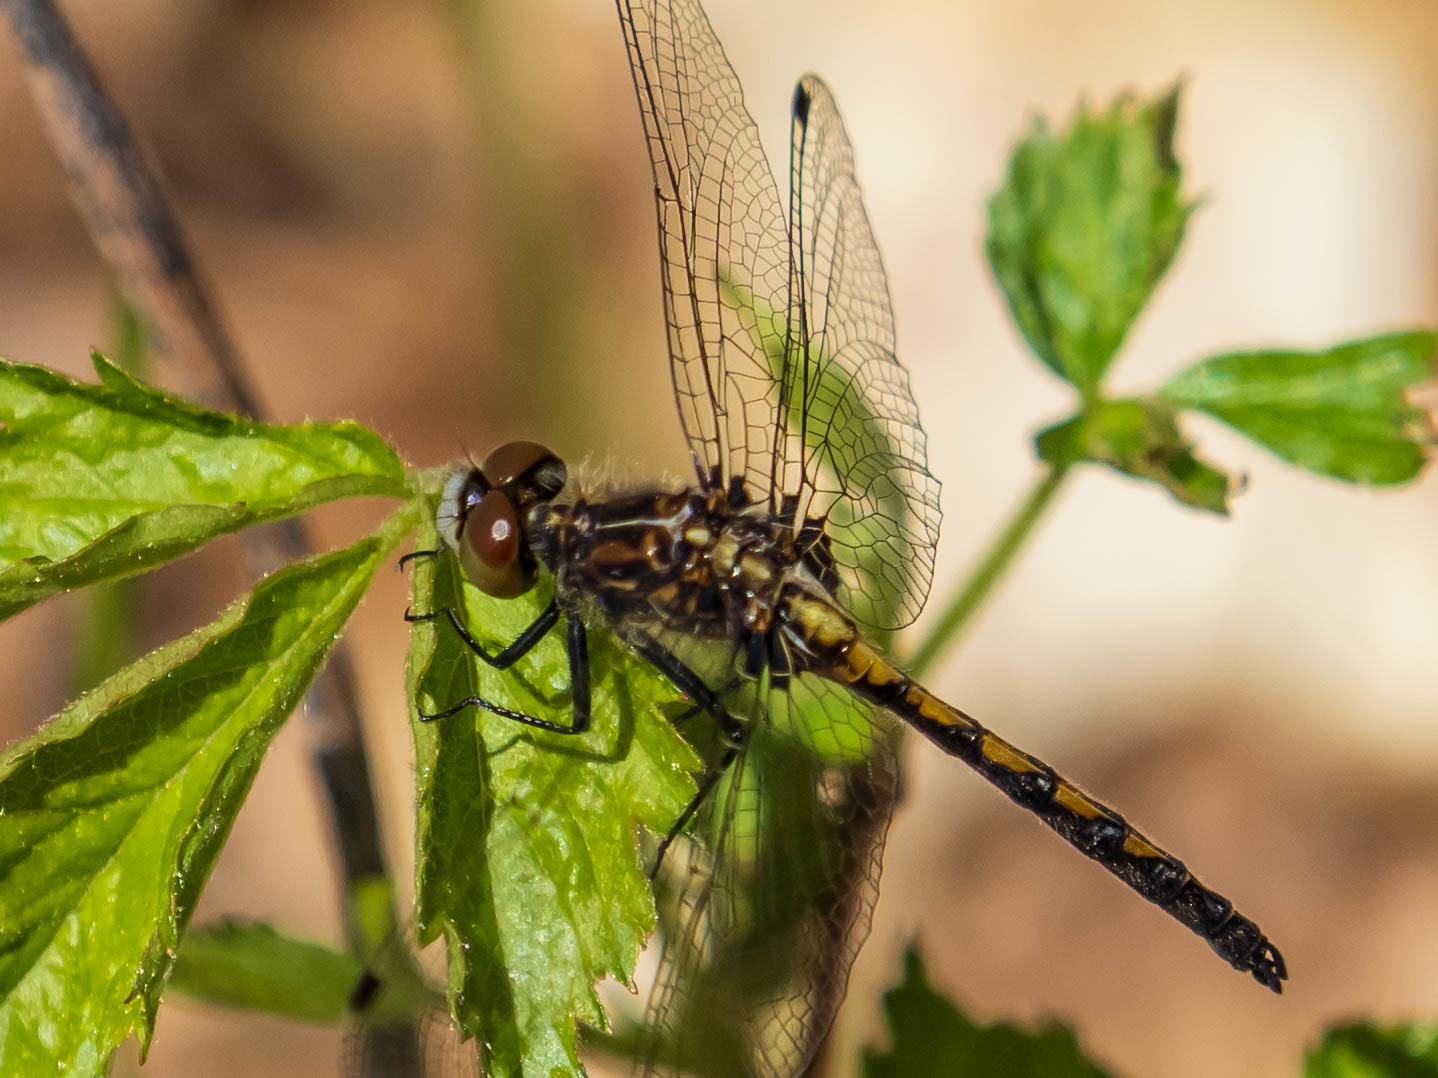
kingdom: Animalia
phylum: Arthropoda
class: Insecta
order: Odonata
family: Libellulidae
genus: Leucorrhinia
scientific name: Leucorrhinia hudsonica
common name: Hudsonian whiteface
